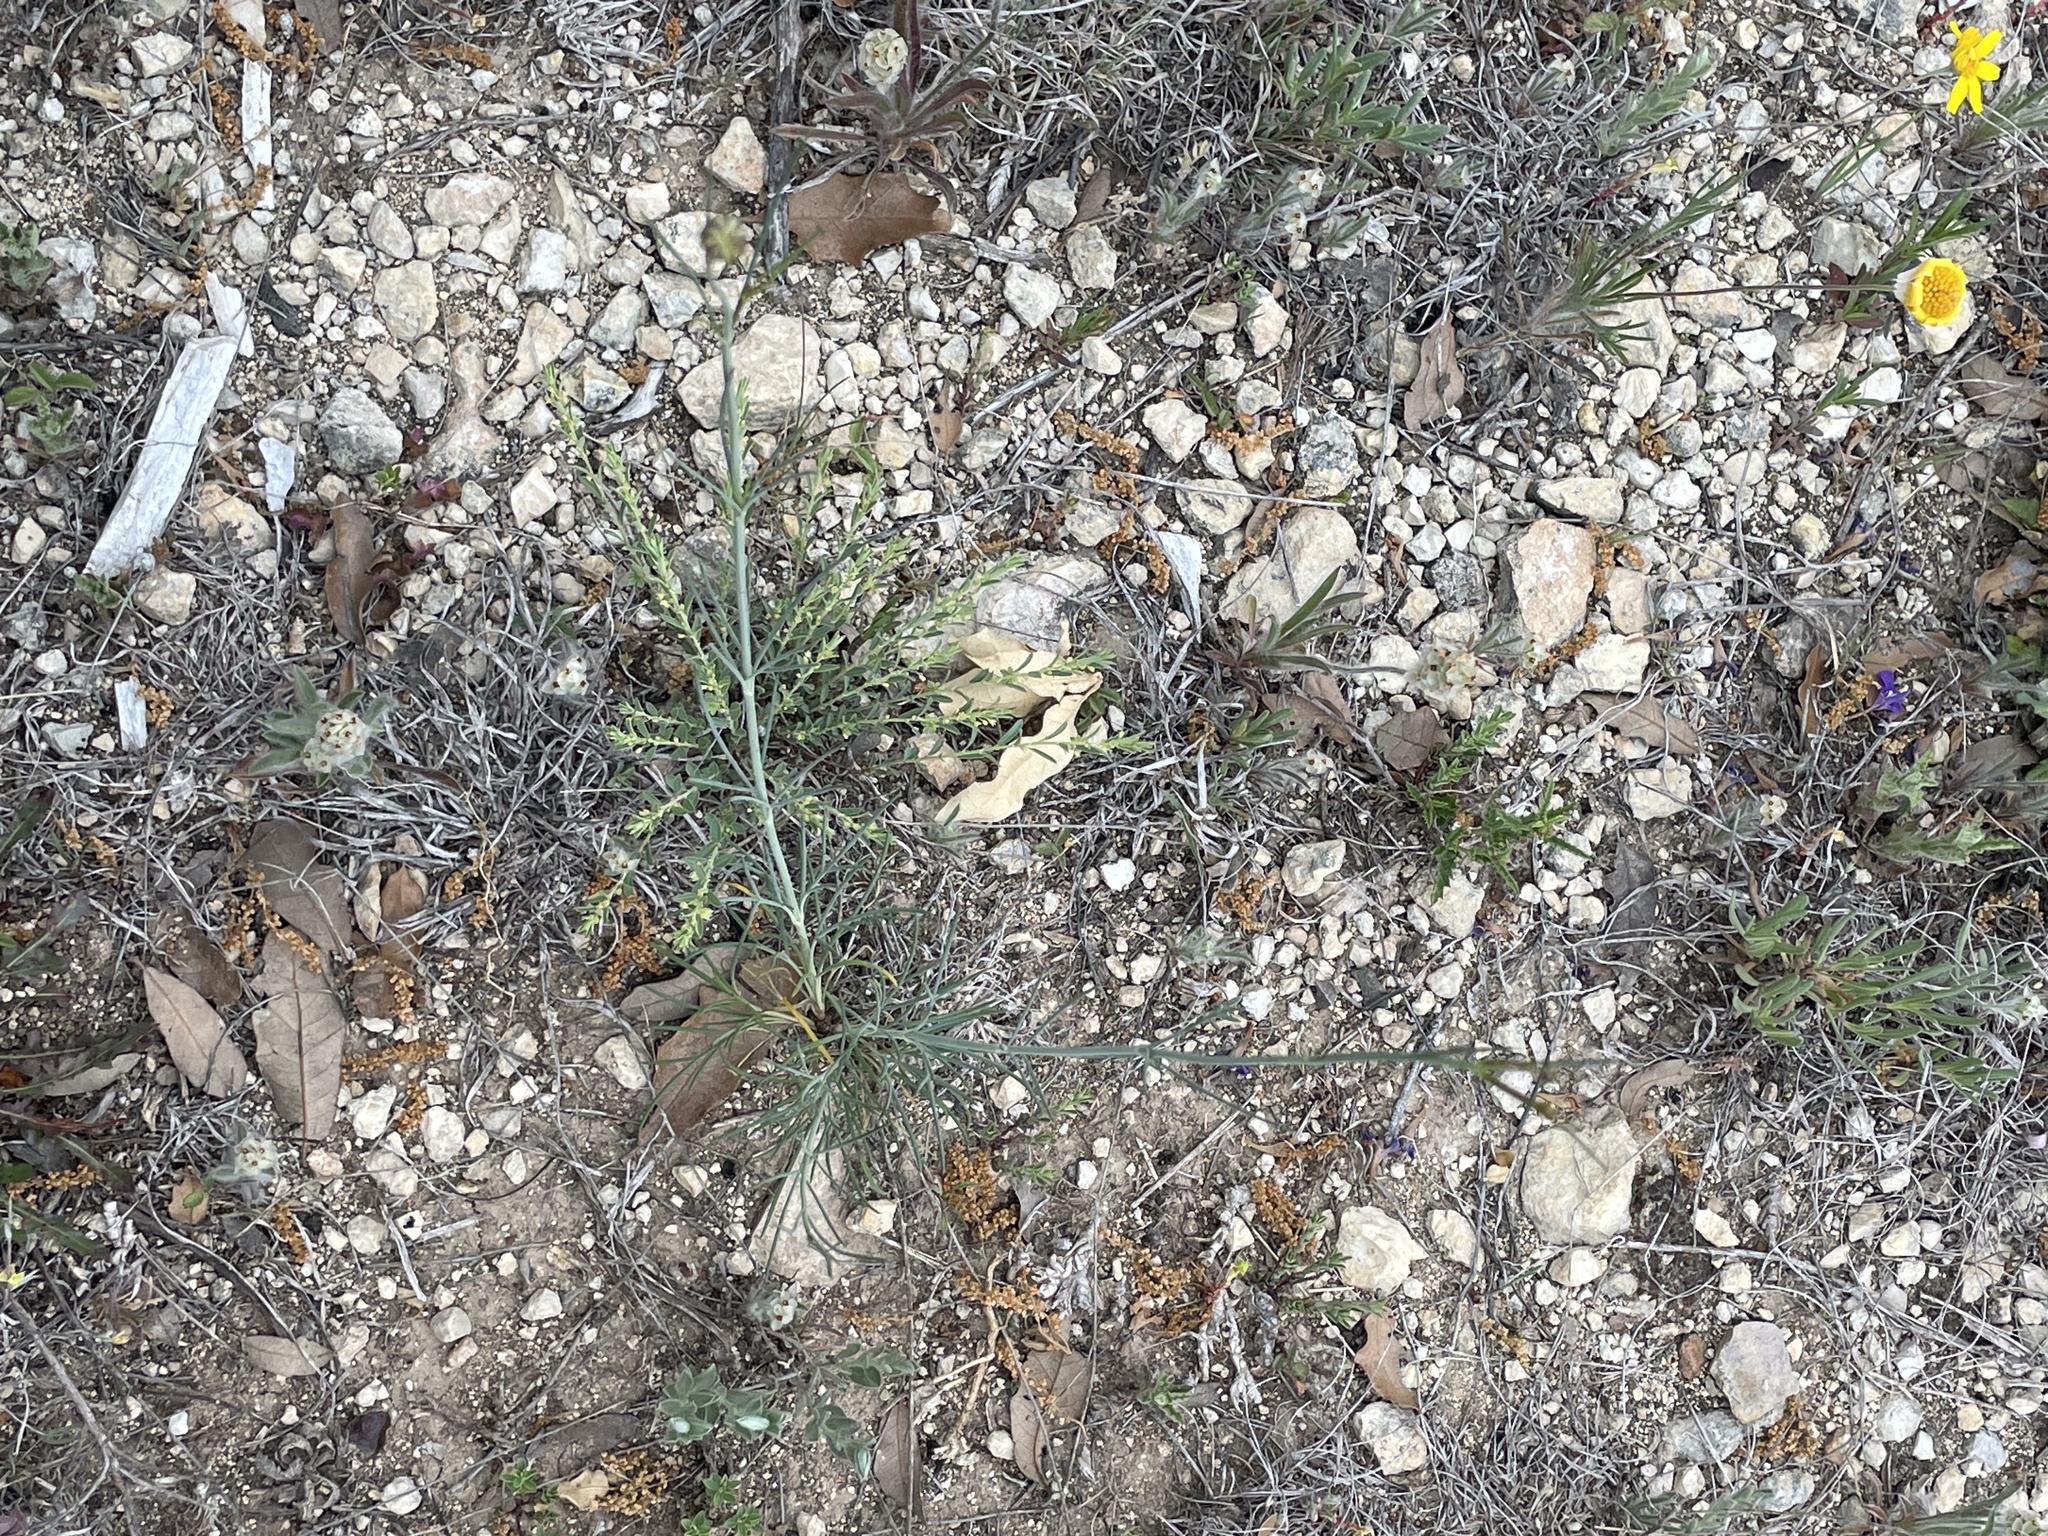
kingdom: Plantae
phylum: Tracheophyta
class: Magnoliopsida
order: Asterales
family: Asteraceae
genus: Thelesperma
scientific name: Thelesperma filifolium
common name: Stiff greenthread
